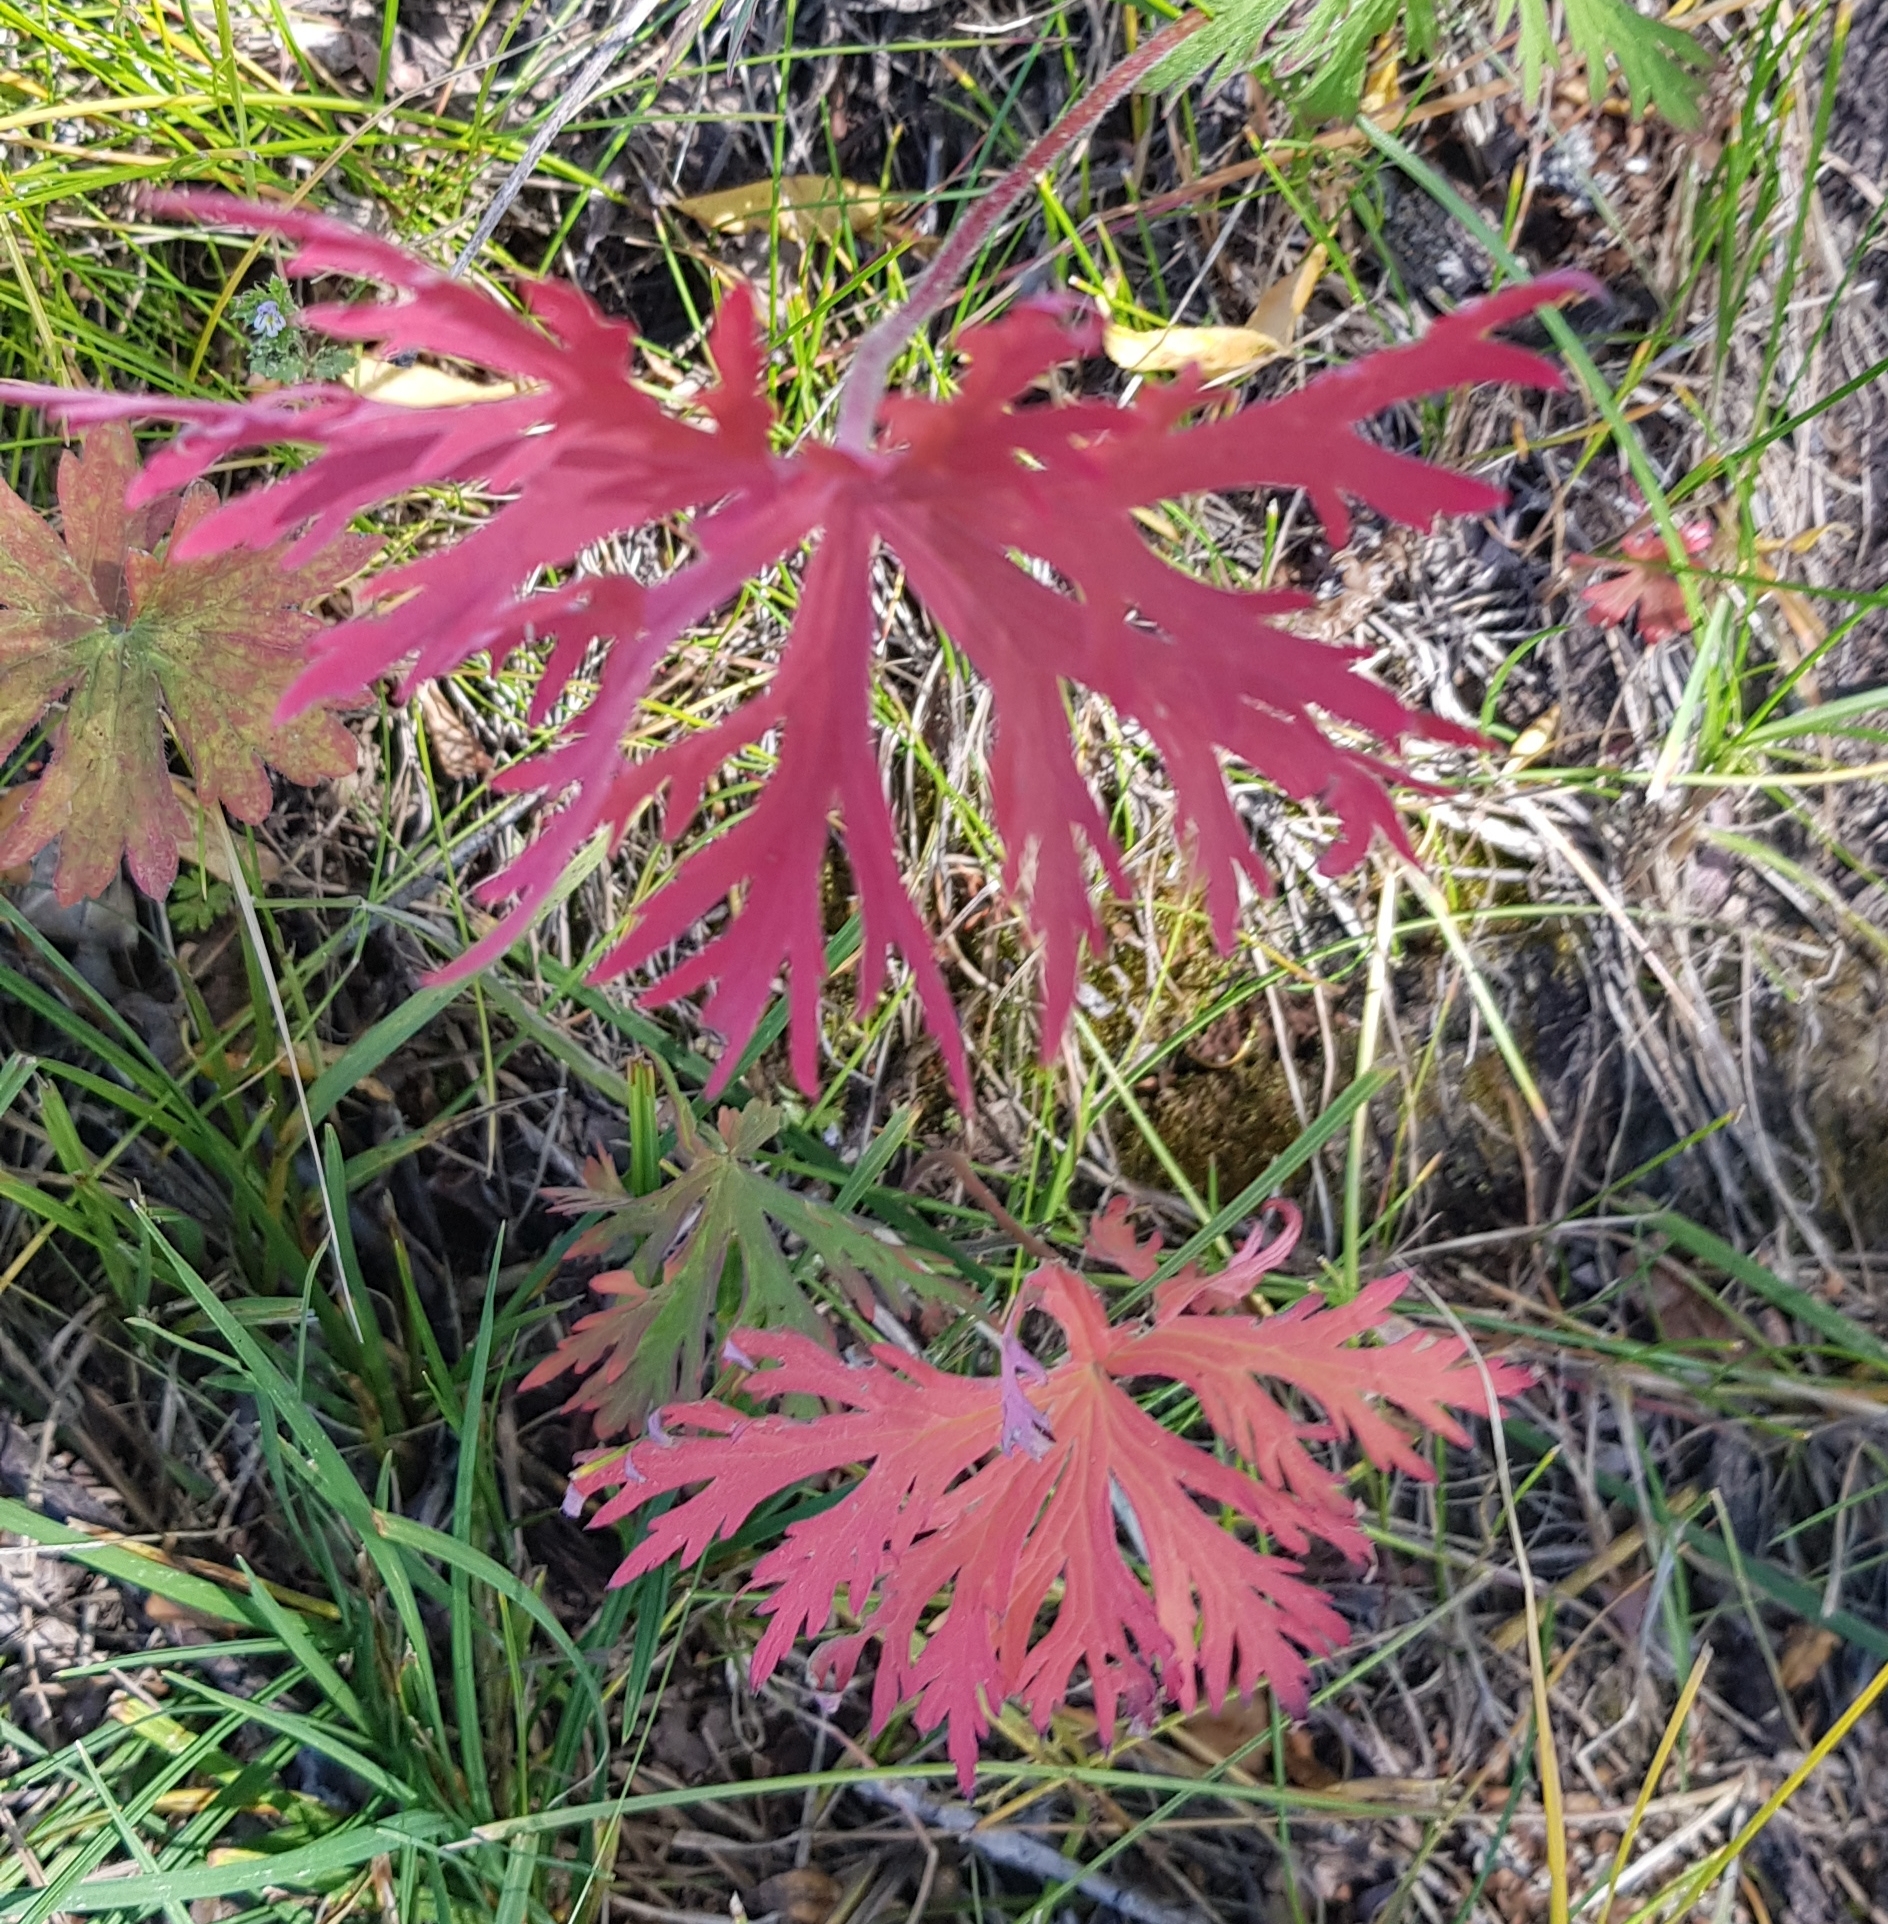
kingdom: Plantae
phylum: Tracheophyta
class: Magnoliopsida
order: Geraniales
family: Geraniaceae
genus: Geranium
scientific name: Geranium pratense
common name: Meadow crane's-bill
